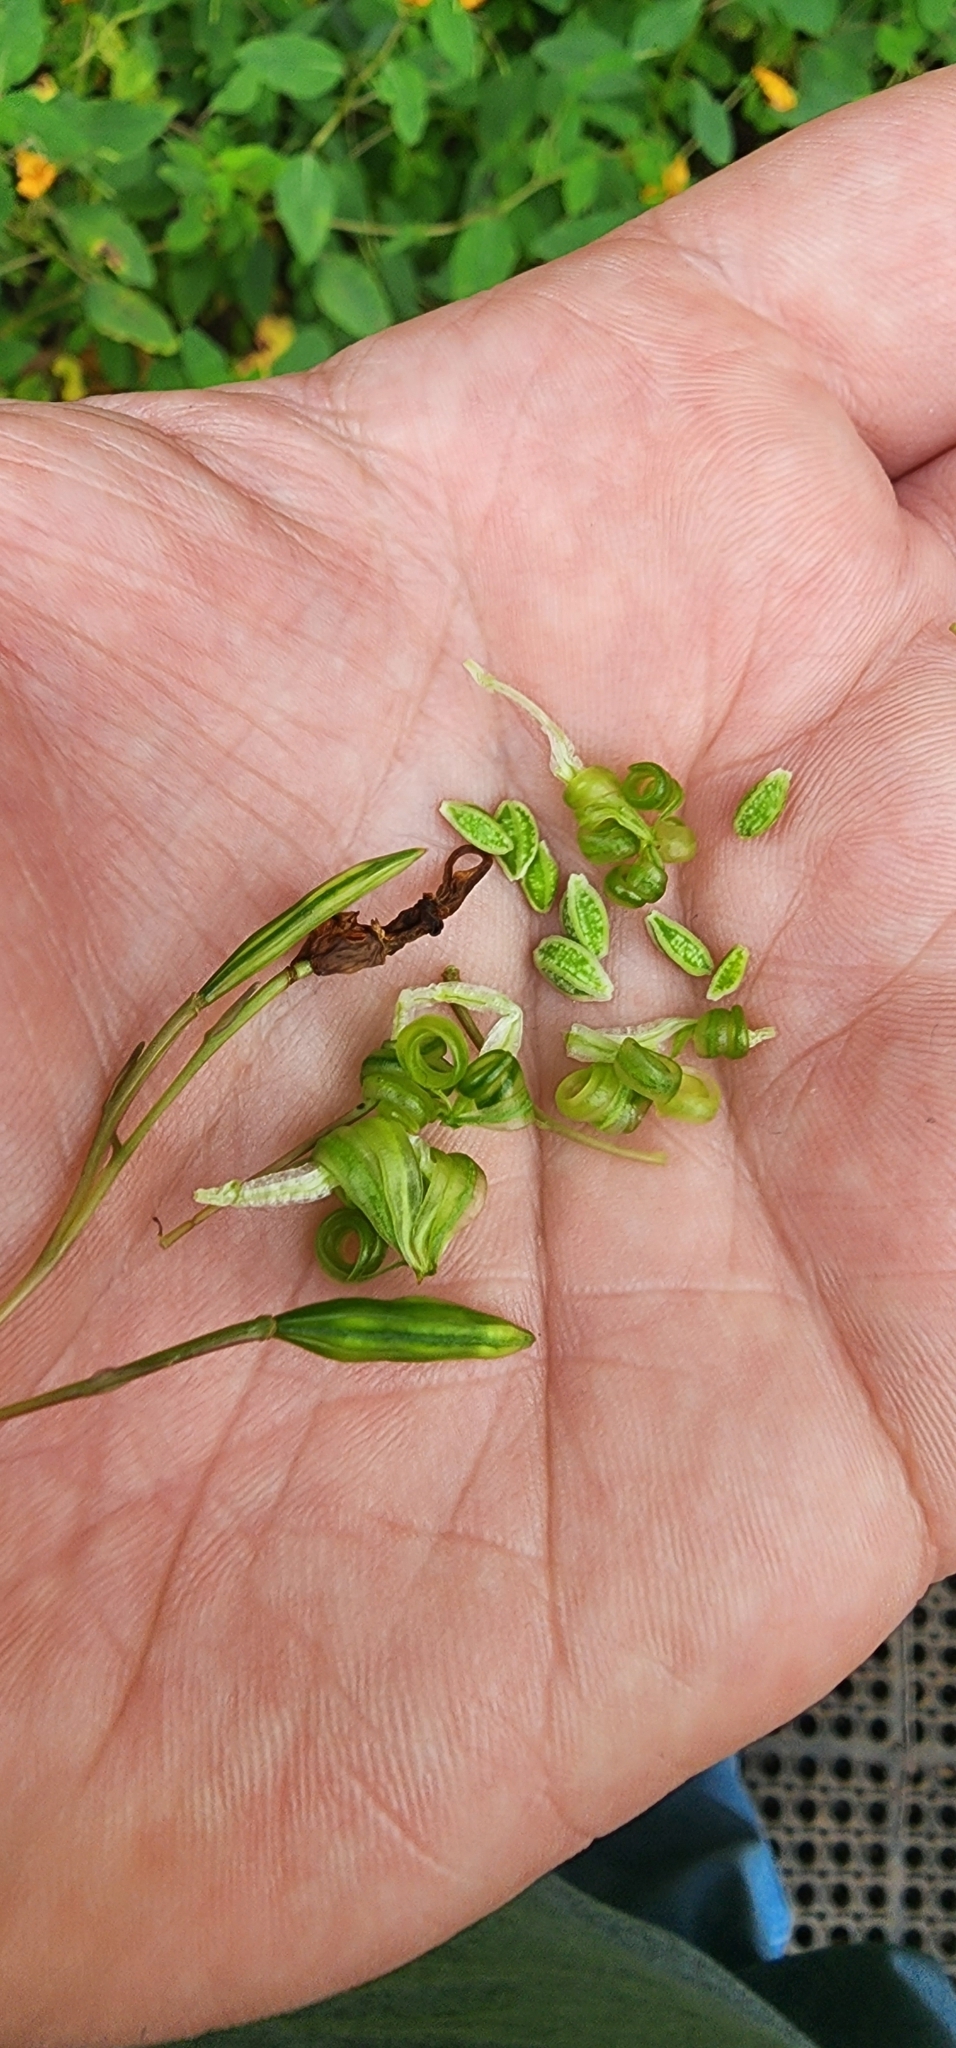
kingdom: Plantae
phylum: Tracheophyta
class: Magnoliopsida
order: Ericales
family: Balsaminaceae
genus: Impatiens
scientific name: Impatiens capensis
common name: Orange balsam
